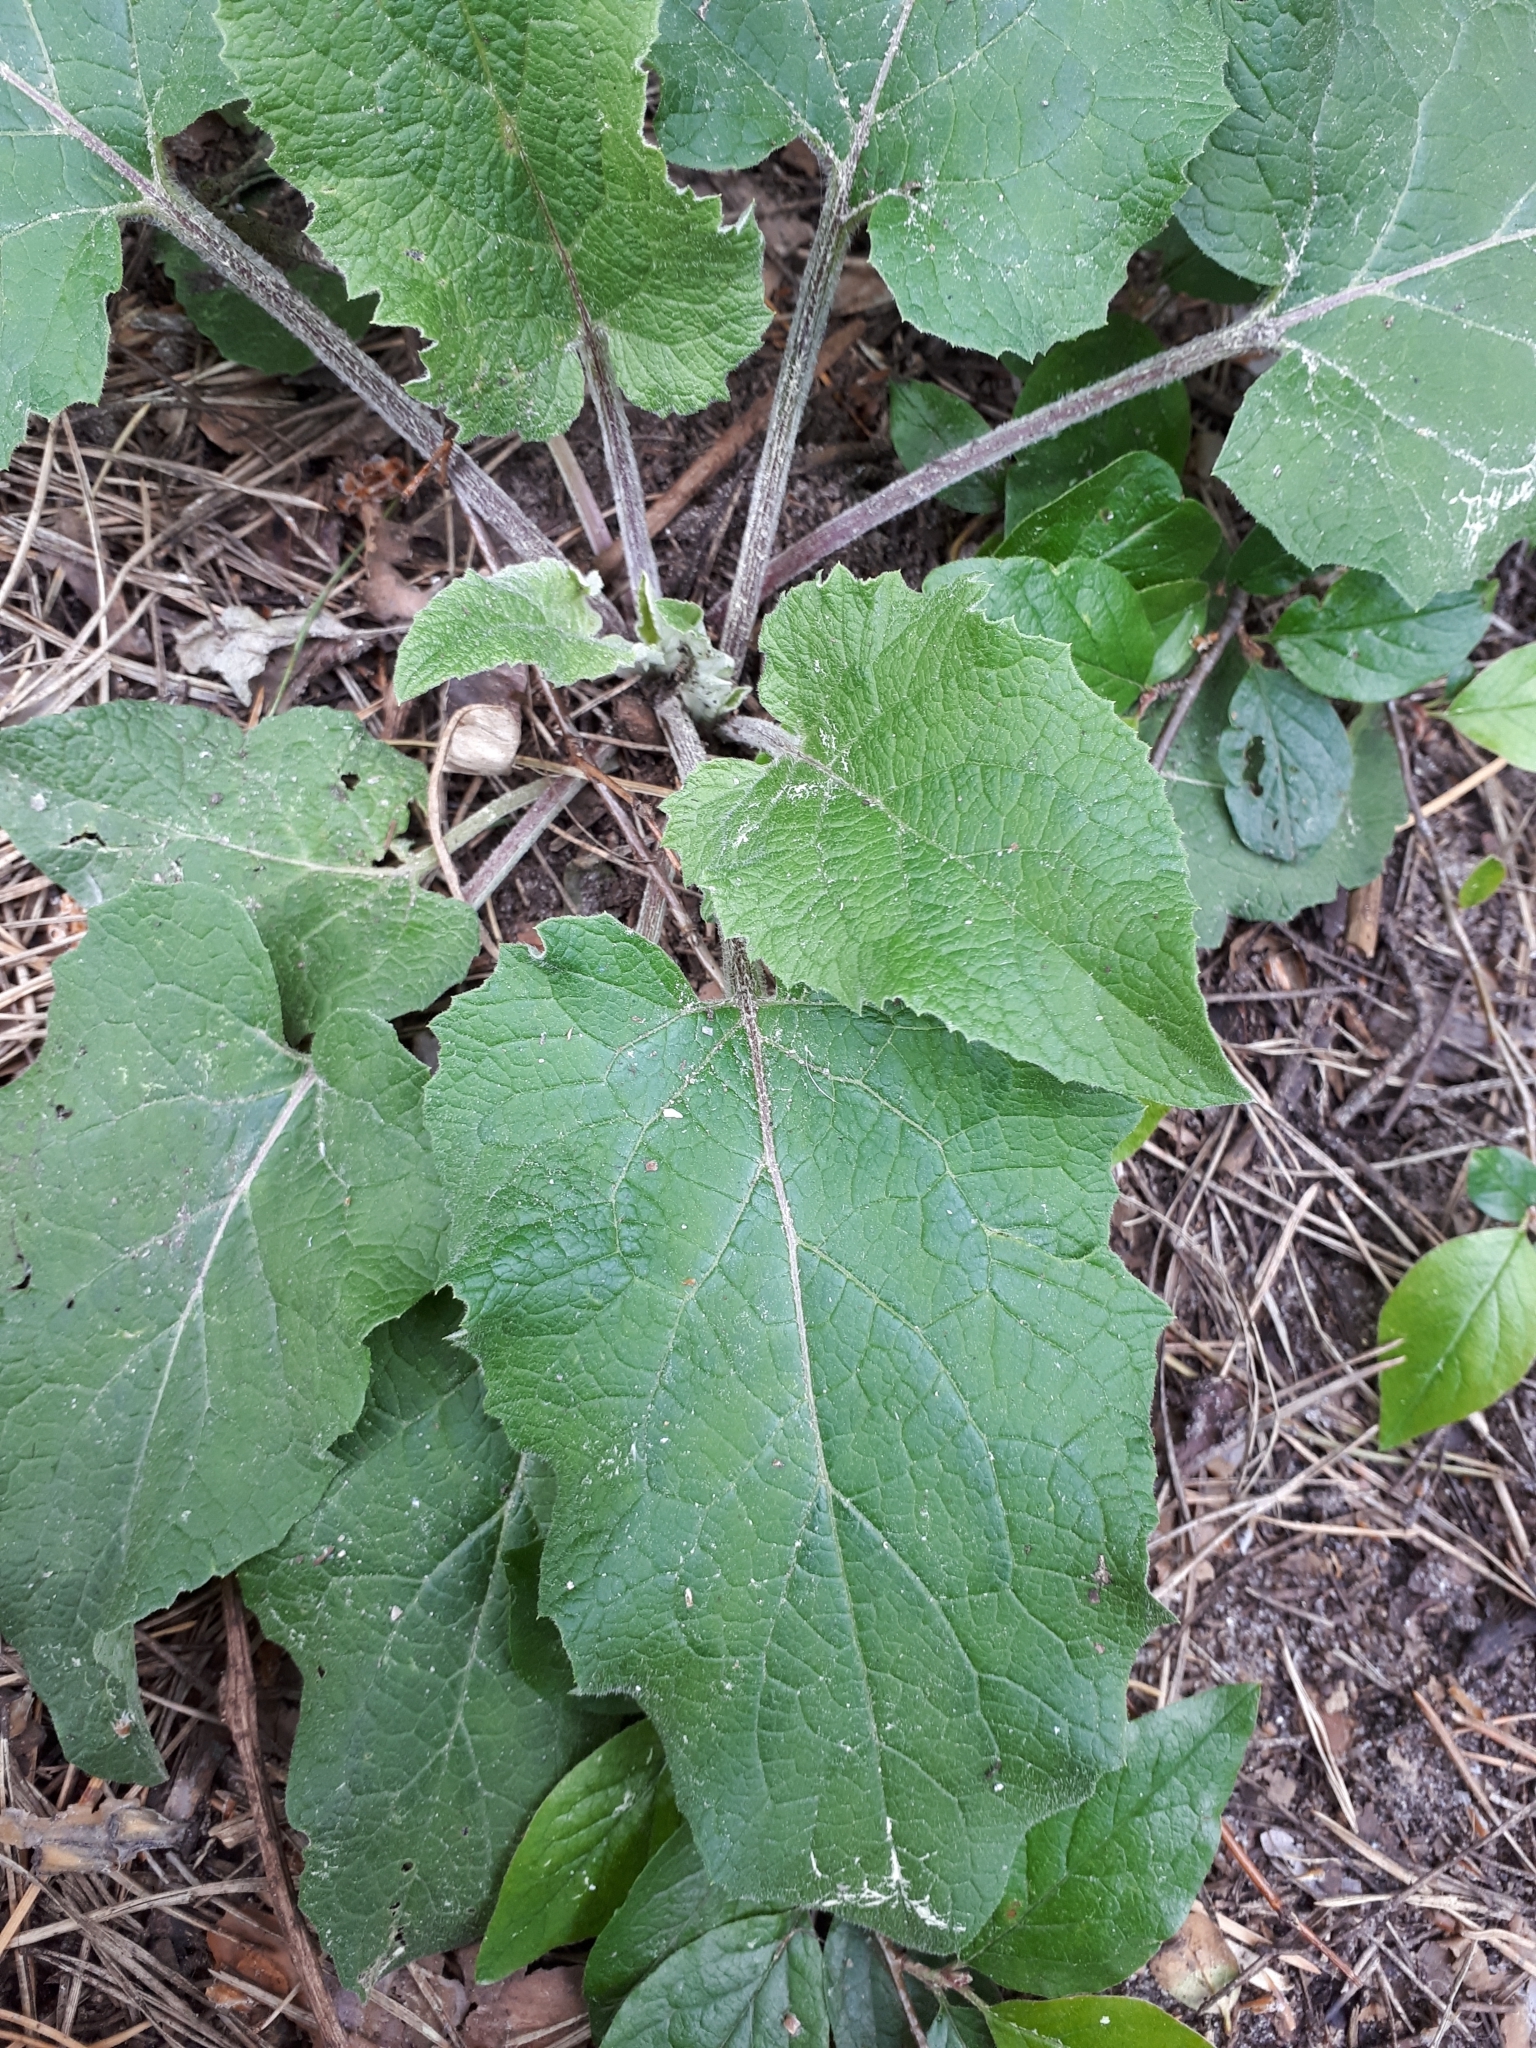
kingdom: Plantae
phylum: Tracheophyta
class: Magnoliopsida
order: Asterales
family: Asteraceae
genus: Arctium
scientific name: Arctium
